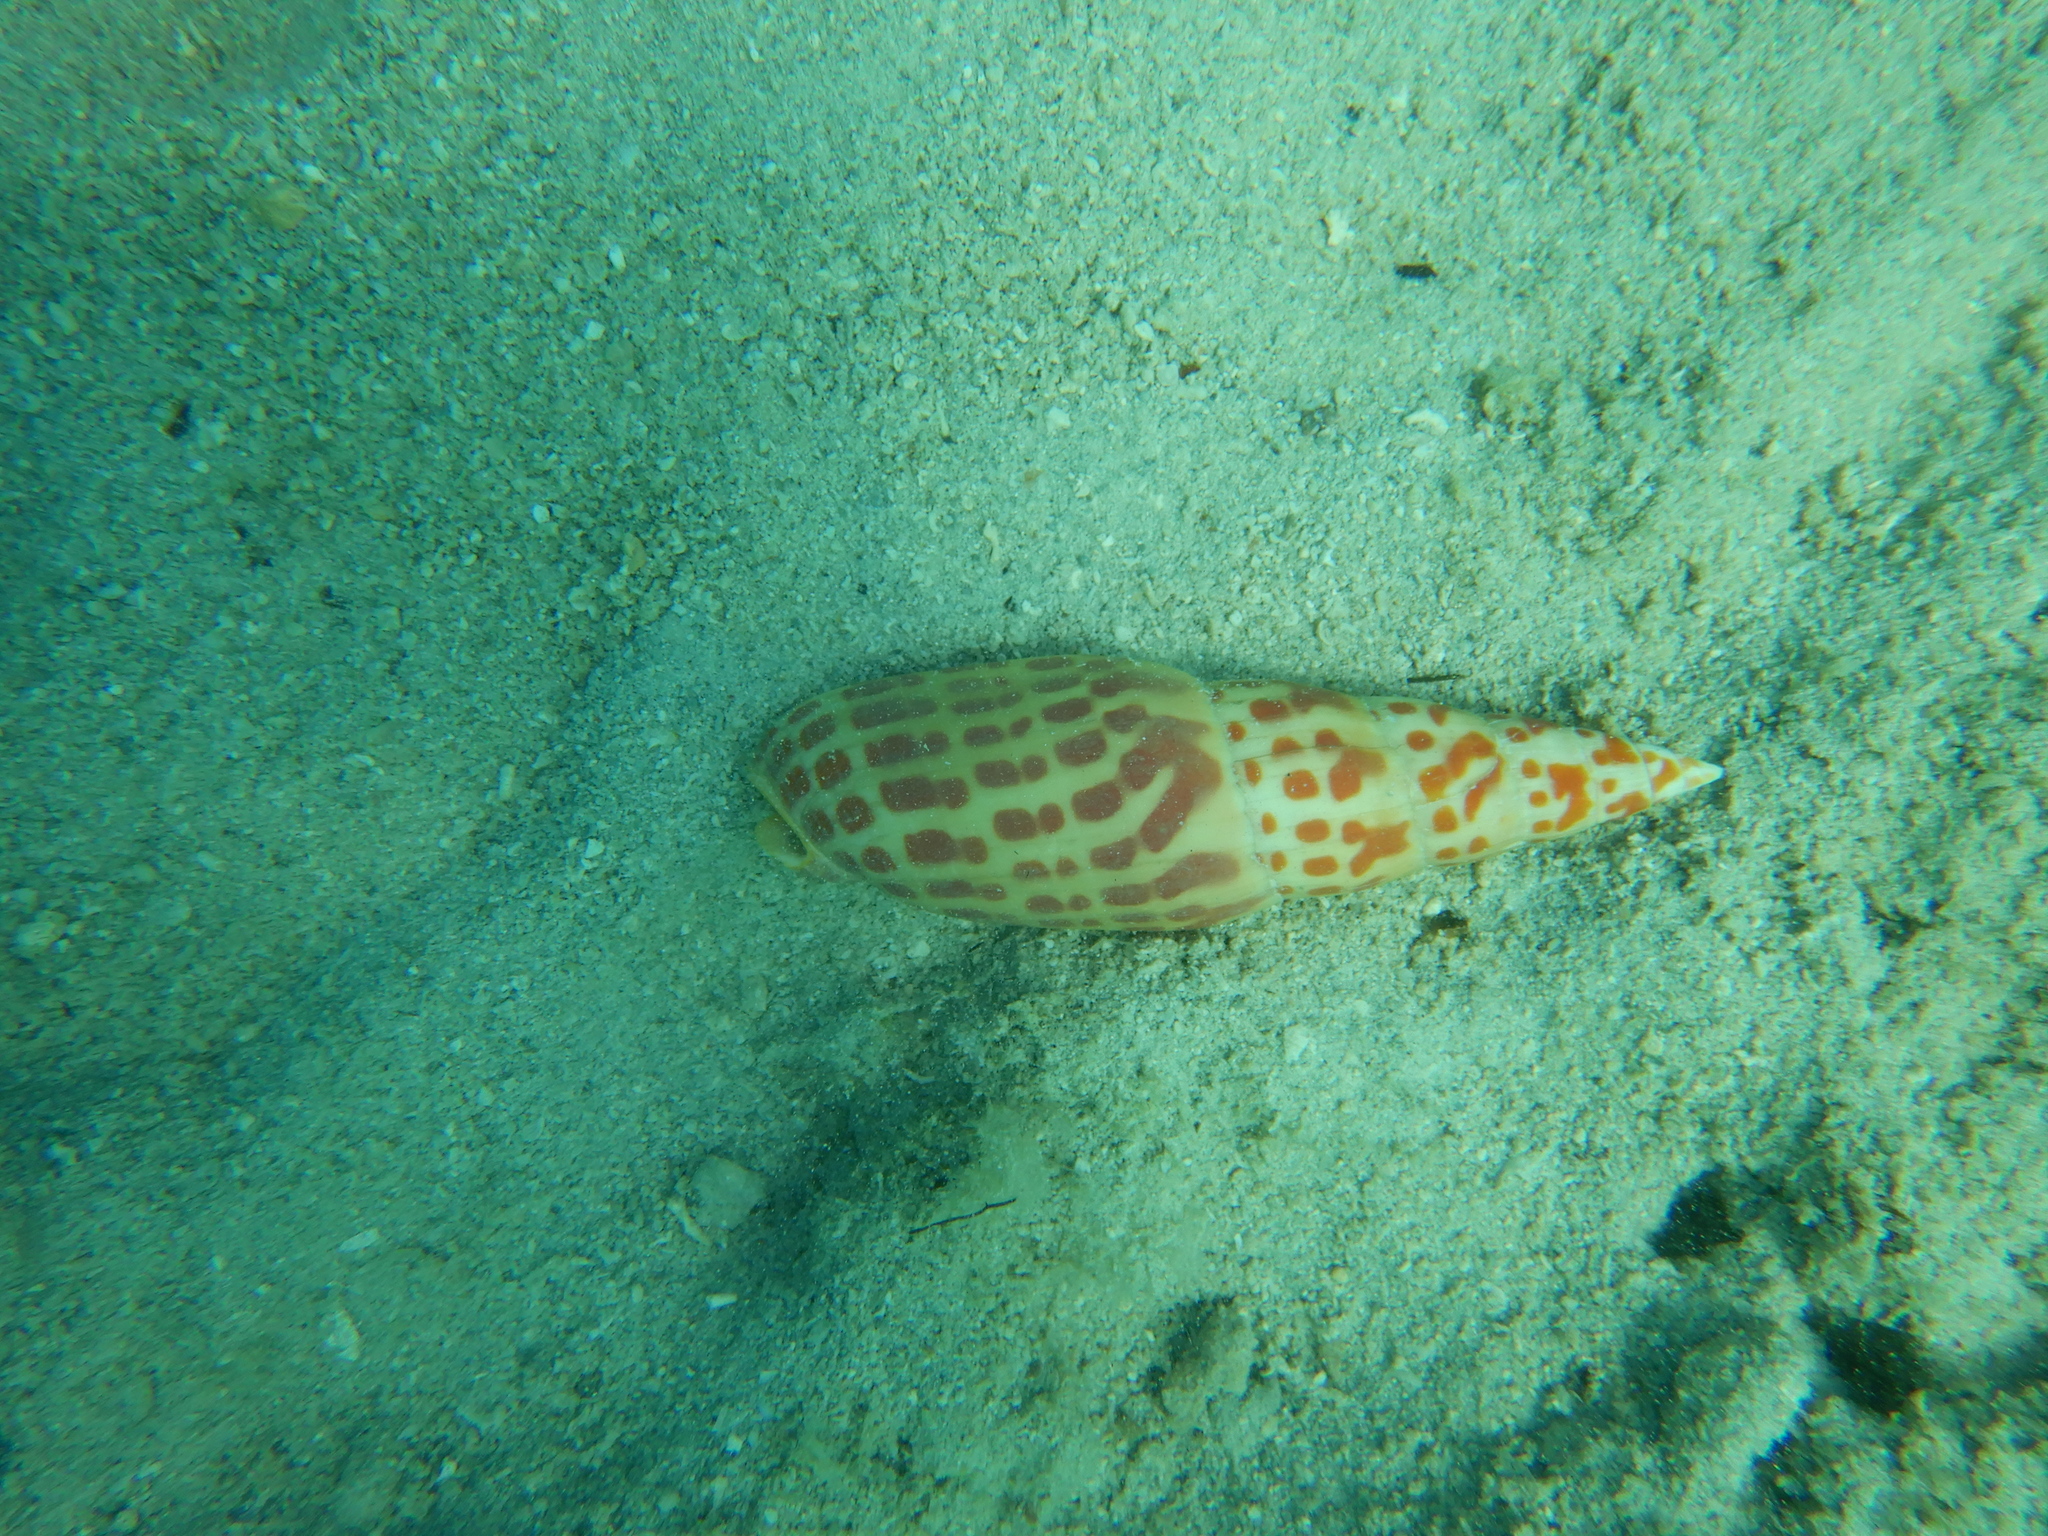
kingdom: Animalia
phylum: Mollusca
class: Gastropoda
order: Neogastropoda
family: Mitridae
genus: Mitra
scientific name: Mitra mitra
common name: Episcopal miter
